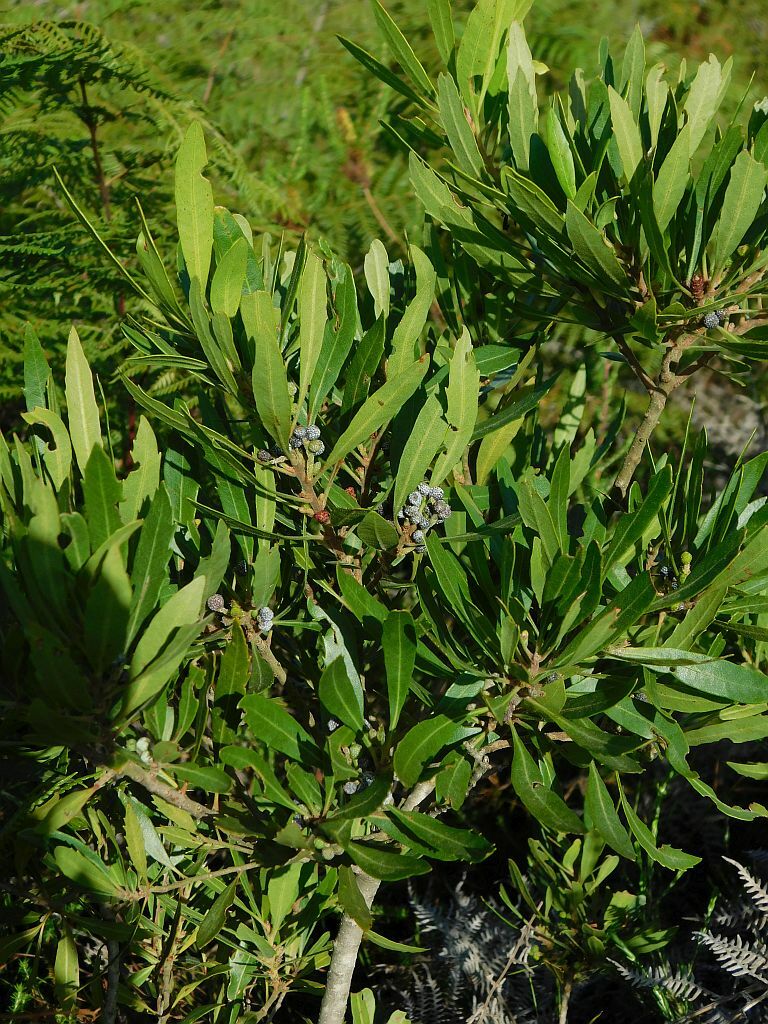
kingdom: Plantae
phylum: Tracheophyta
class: Magnoliopsida
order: Fagales
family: Myricaceae
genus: Morella
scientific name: Morella serrata
